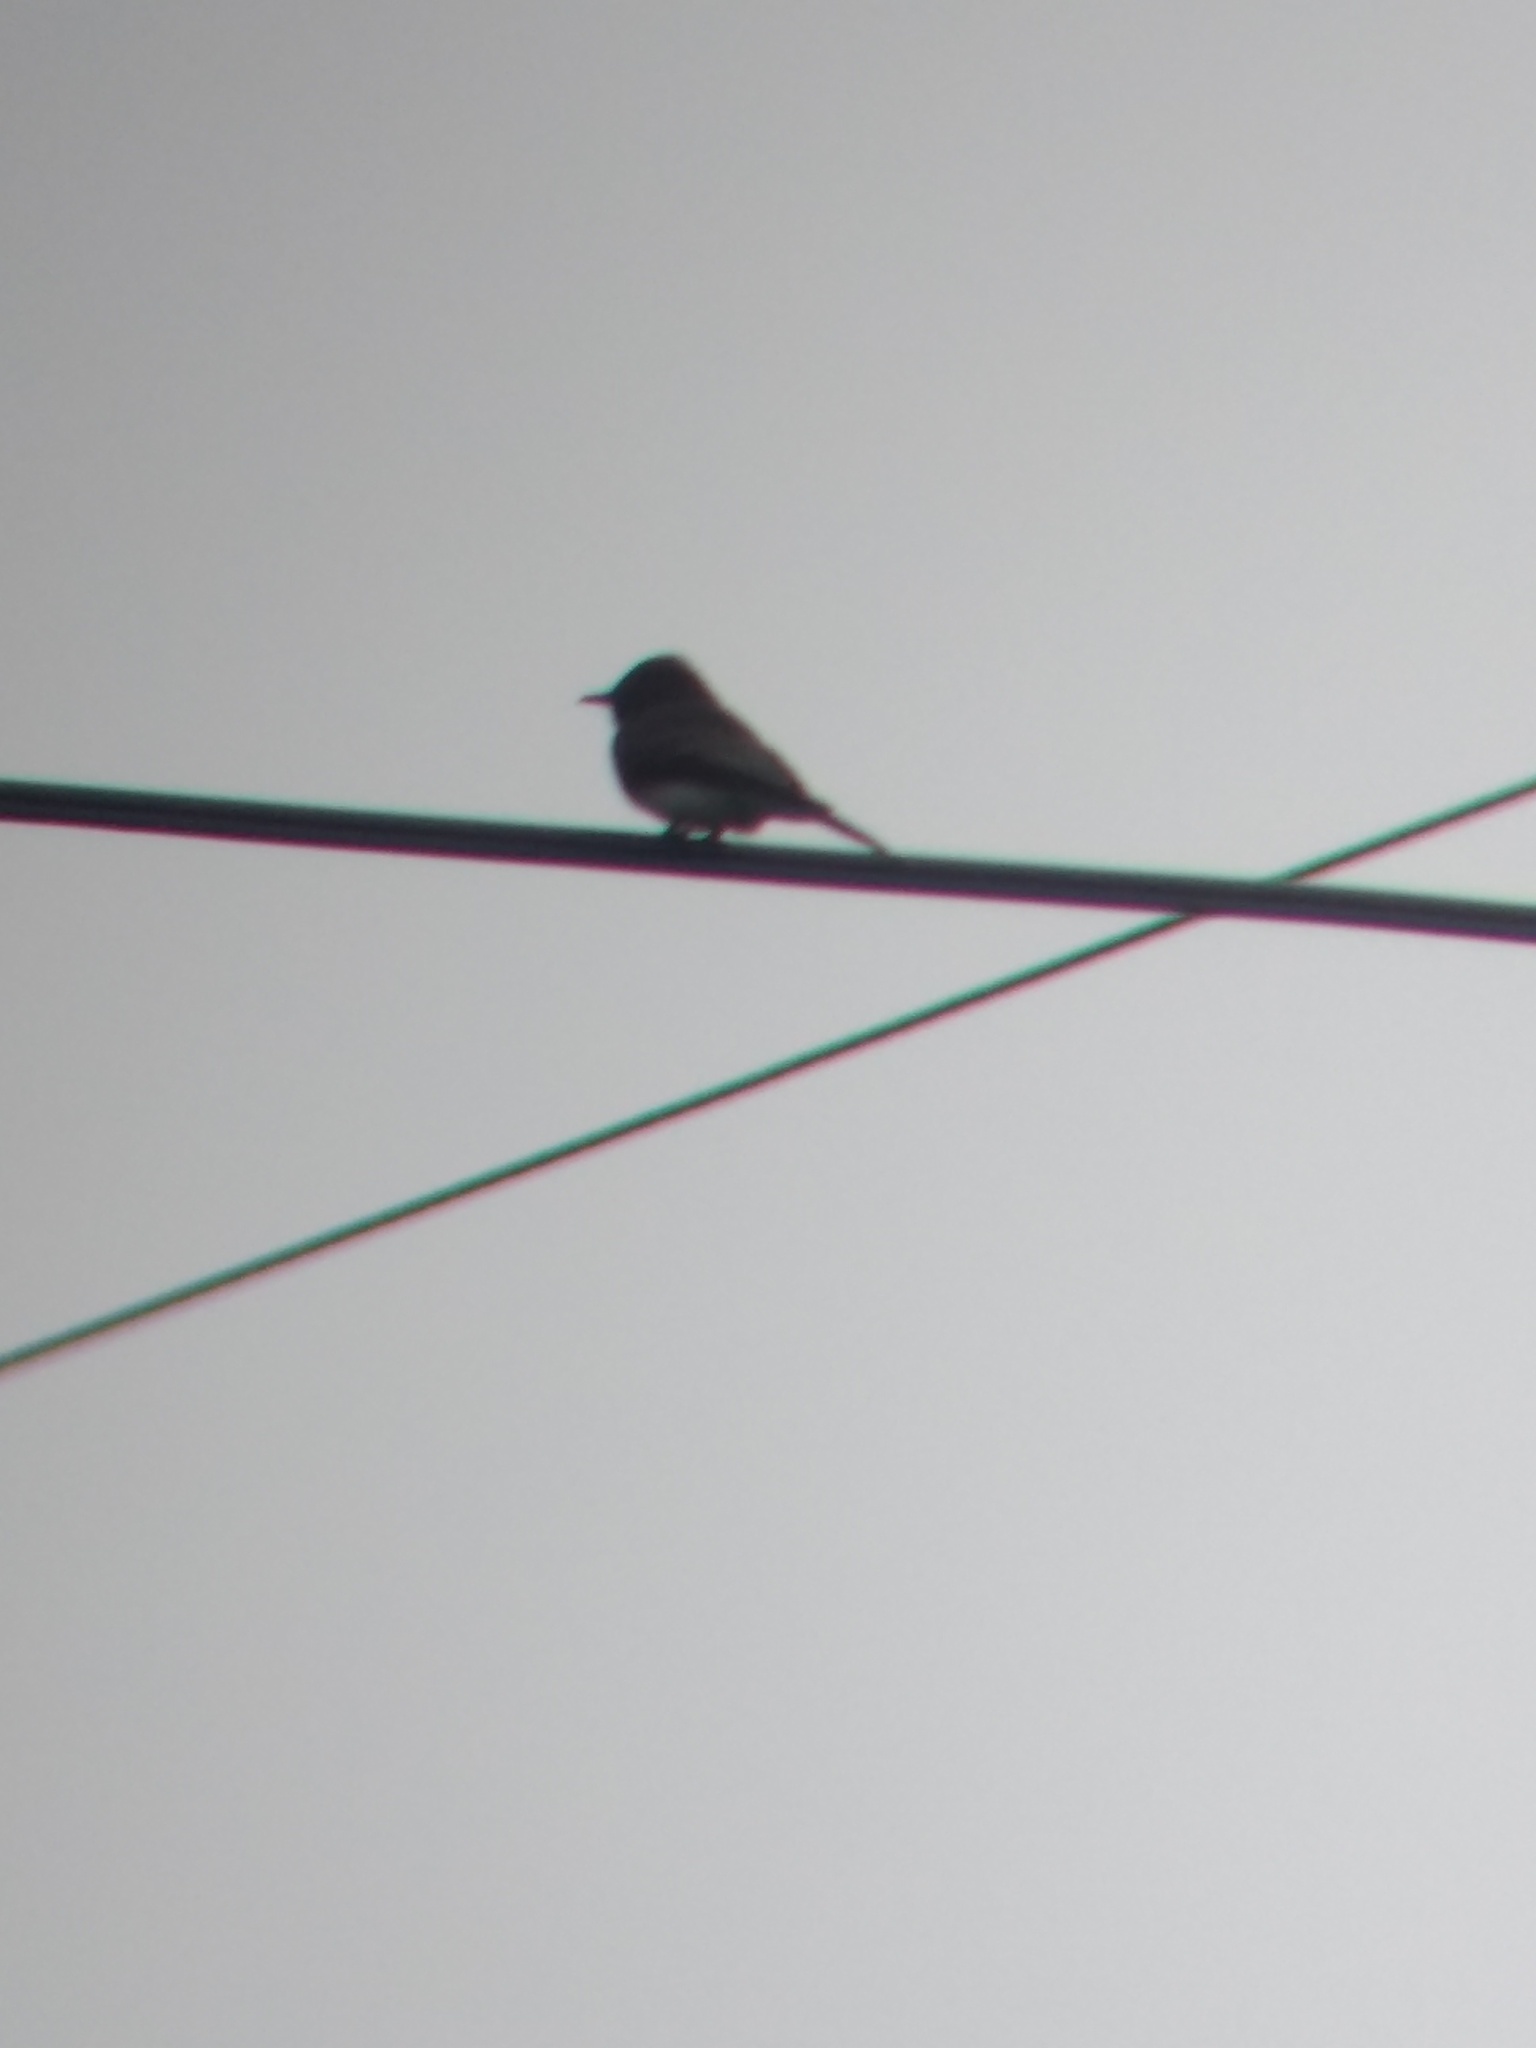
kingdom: Animalia
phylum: Chordata
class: Aves
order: Passeriformes
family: Tyrannidae
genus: Sayornis
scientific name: Sayornis nigricans
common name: Black phoebe
